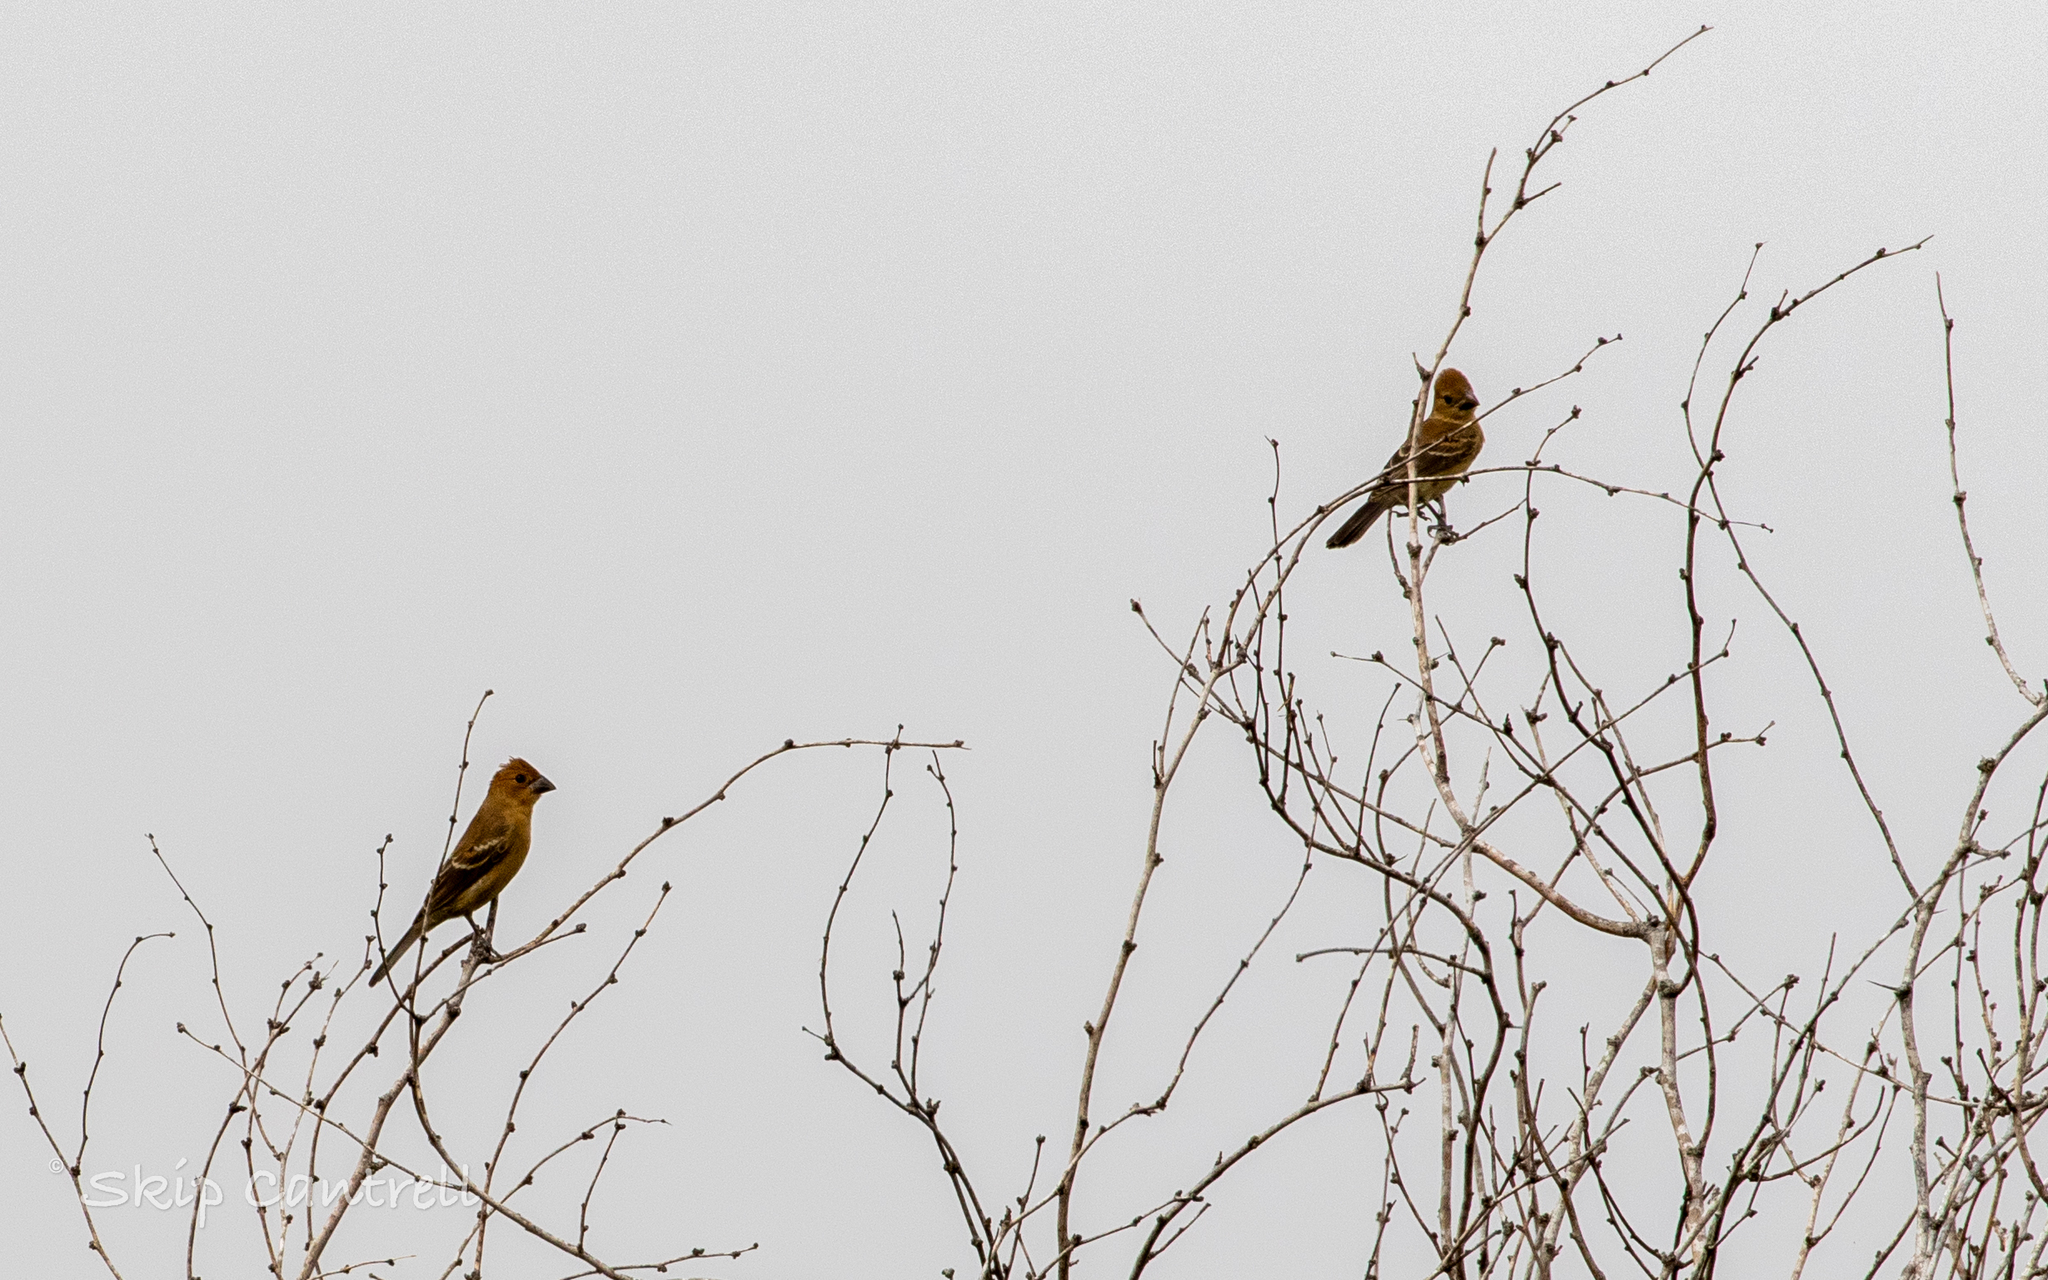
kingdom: Animalia
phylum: Chordata
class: Aves
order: Passeriformes
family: Cardinalidae
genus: Passerina
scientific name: Passerina caerulea
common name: Blue grosbeak
